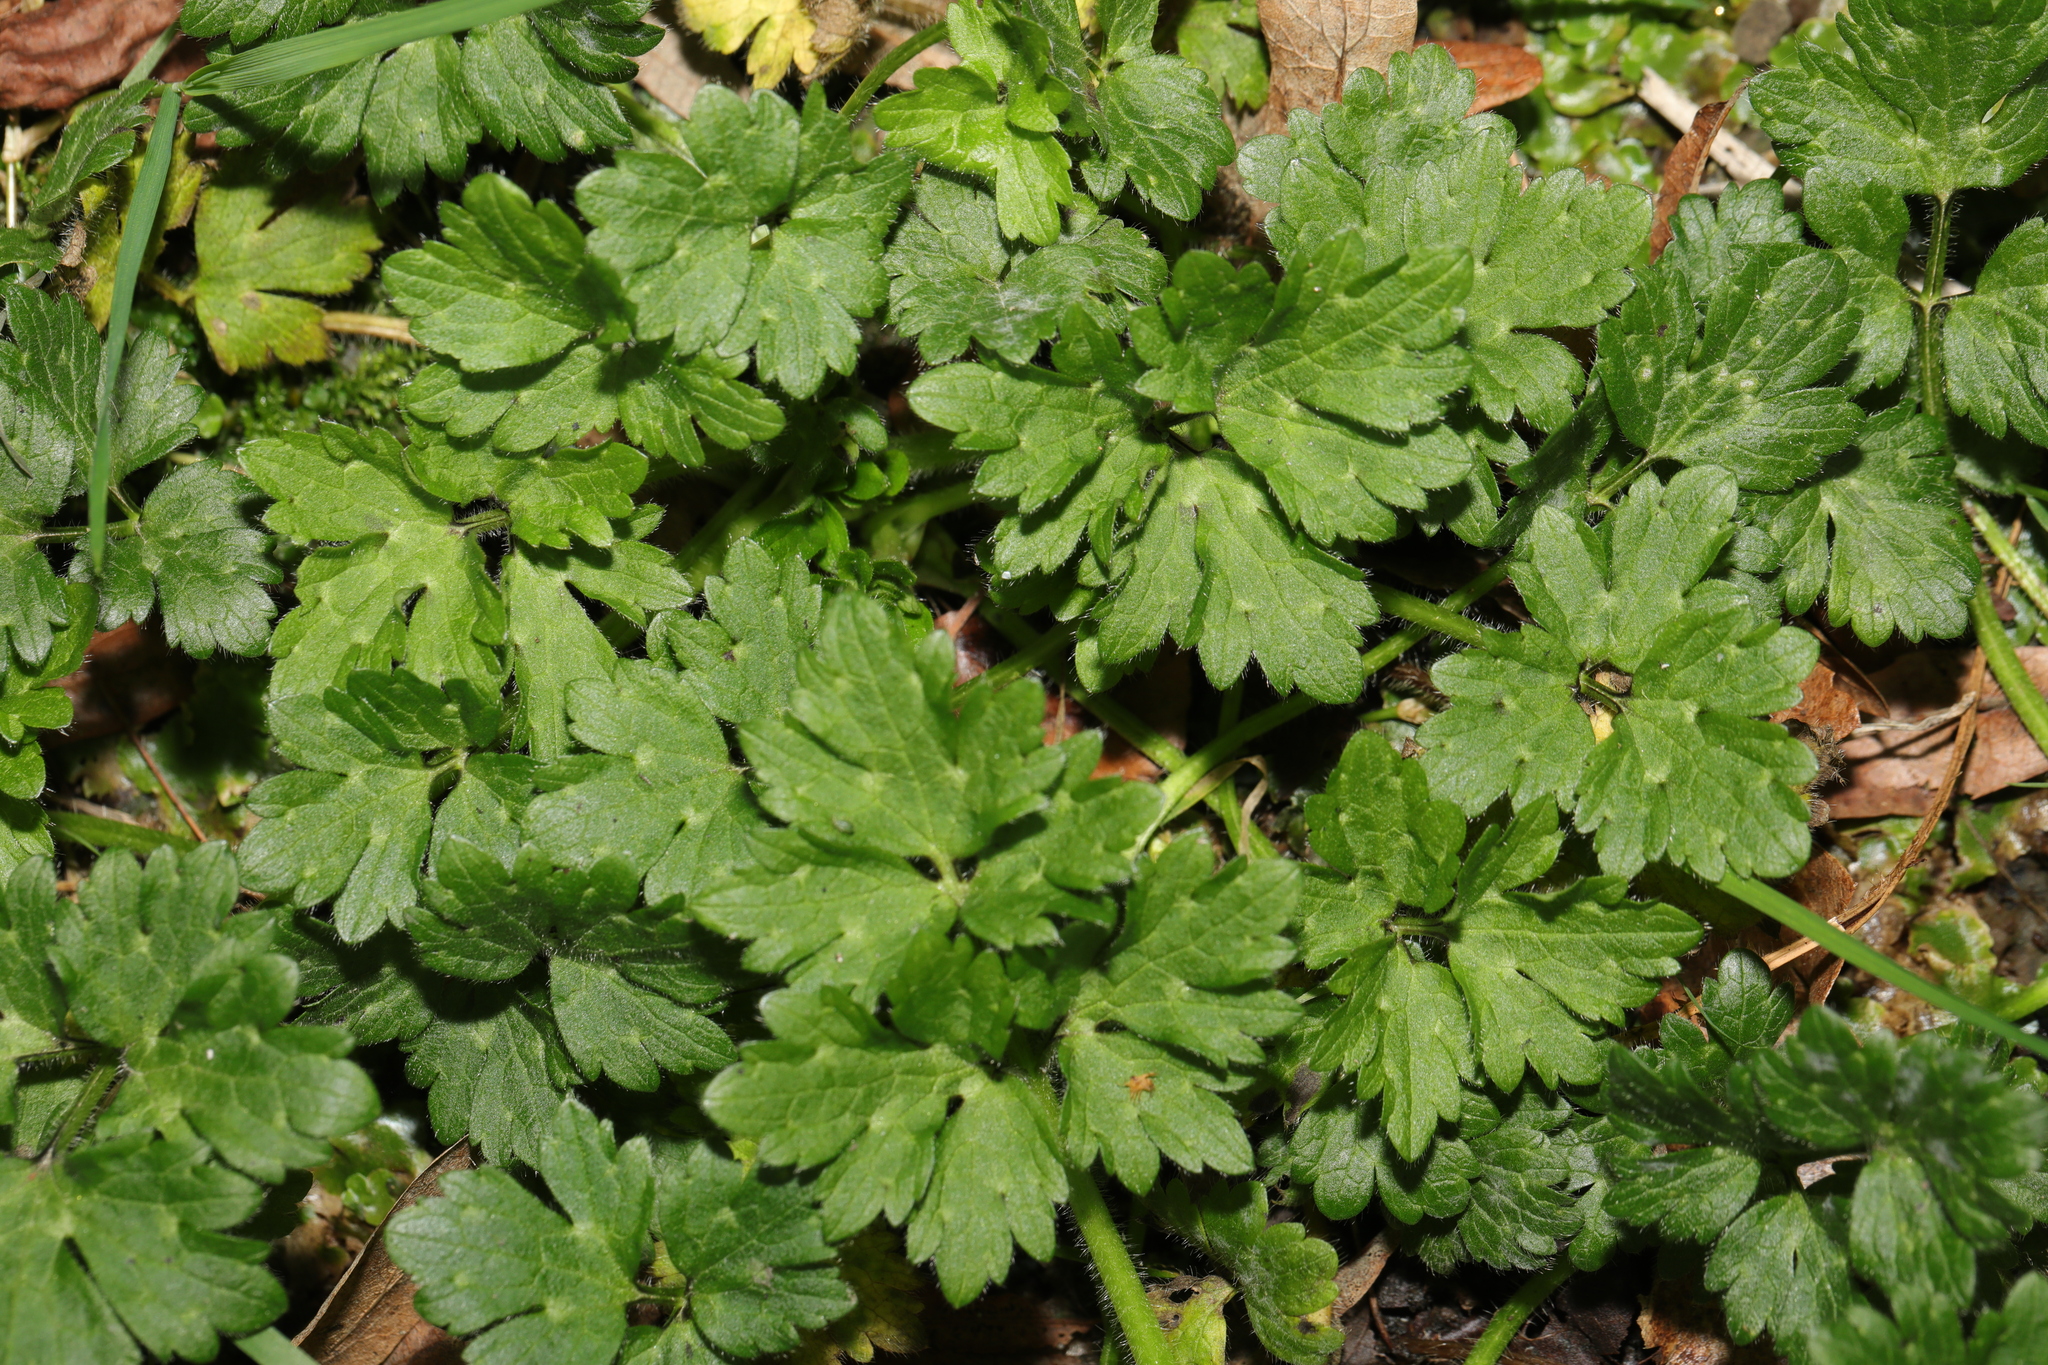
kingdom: Plantae
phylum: Tracheophyta
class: Magnoliopsida
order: Ranunculales
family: Ranunculaceae
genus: Ranunculus
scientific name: Ranunculus repens
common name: Creeping buttercup
